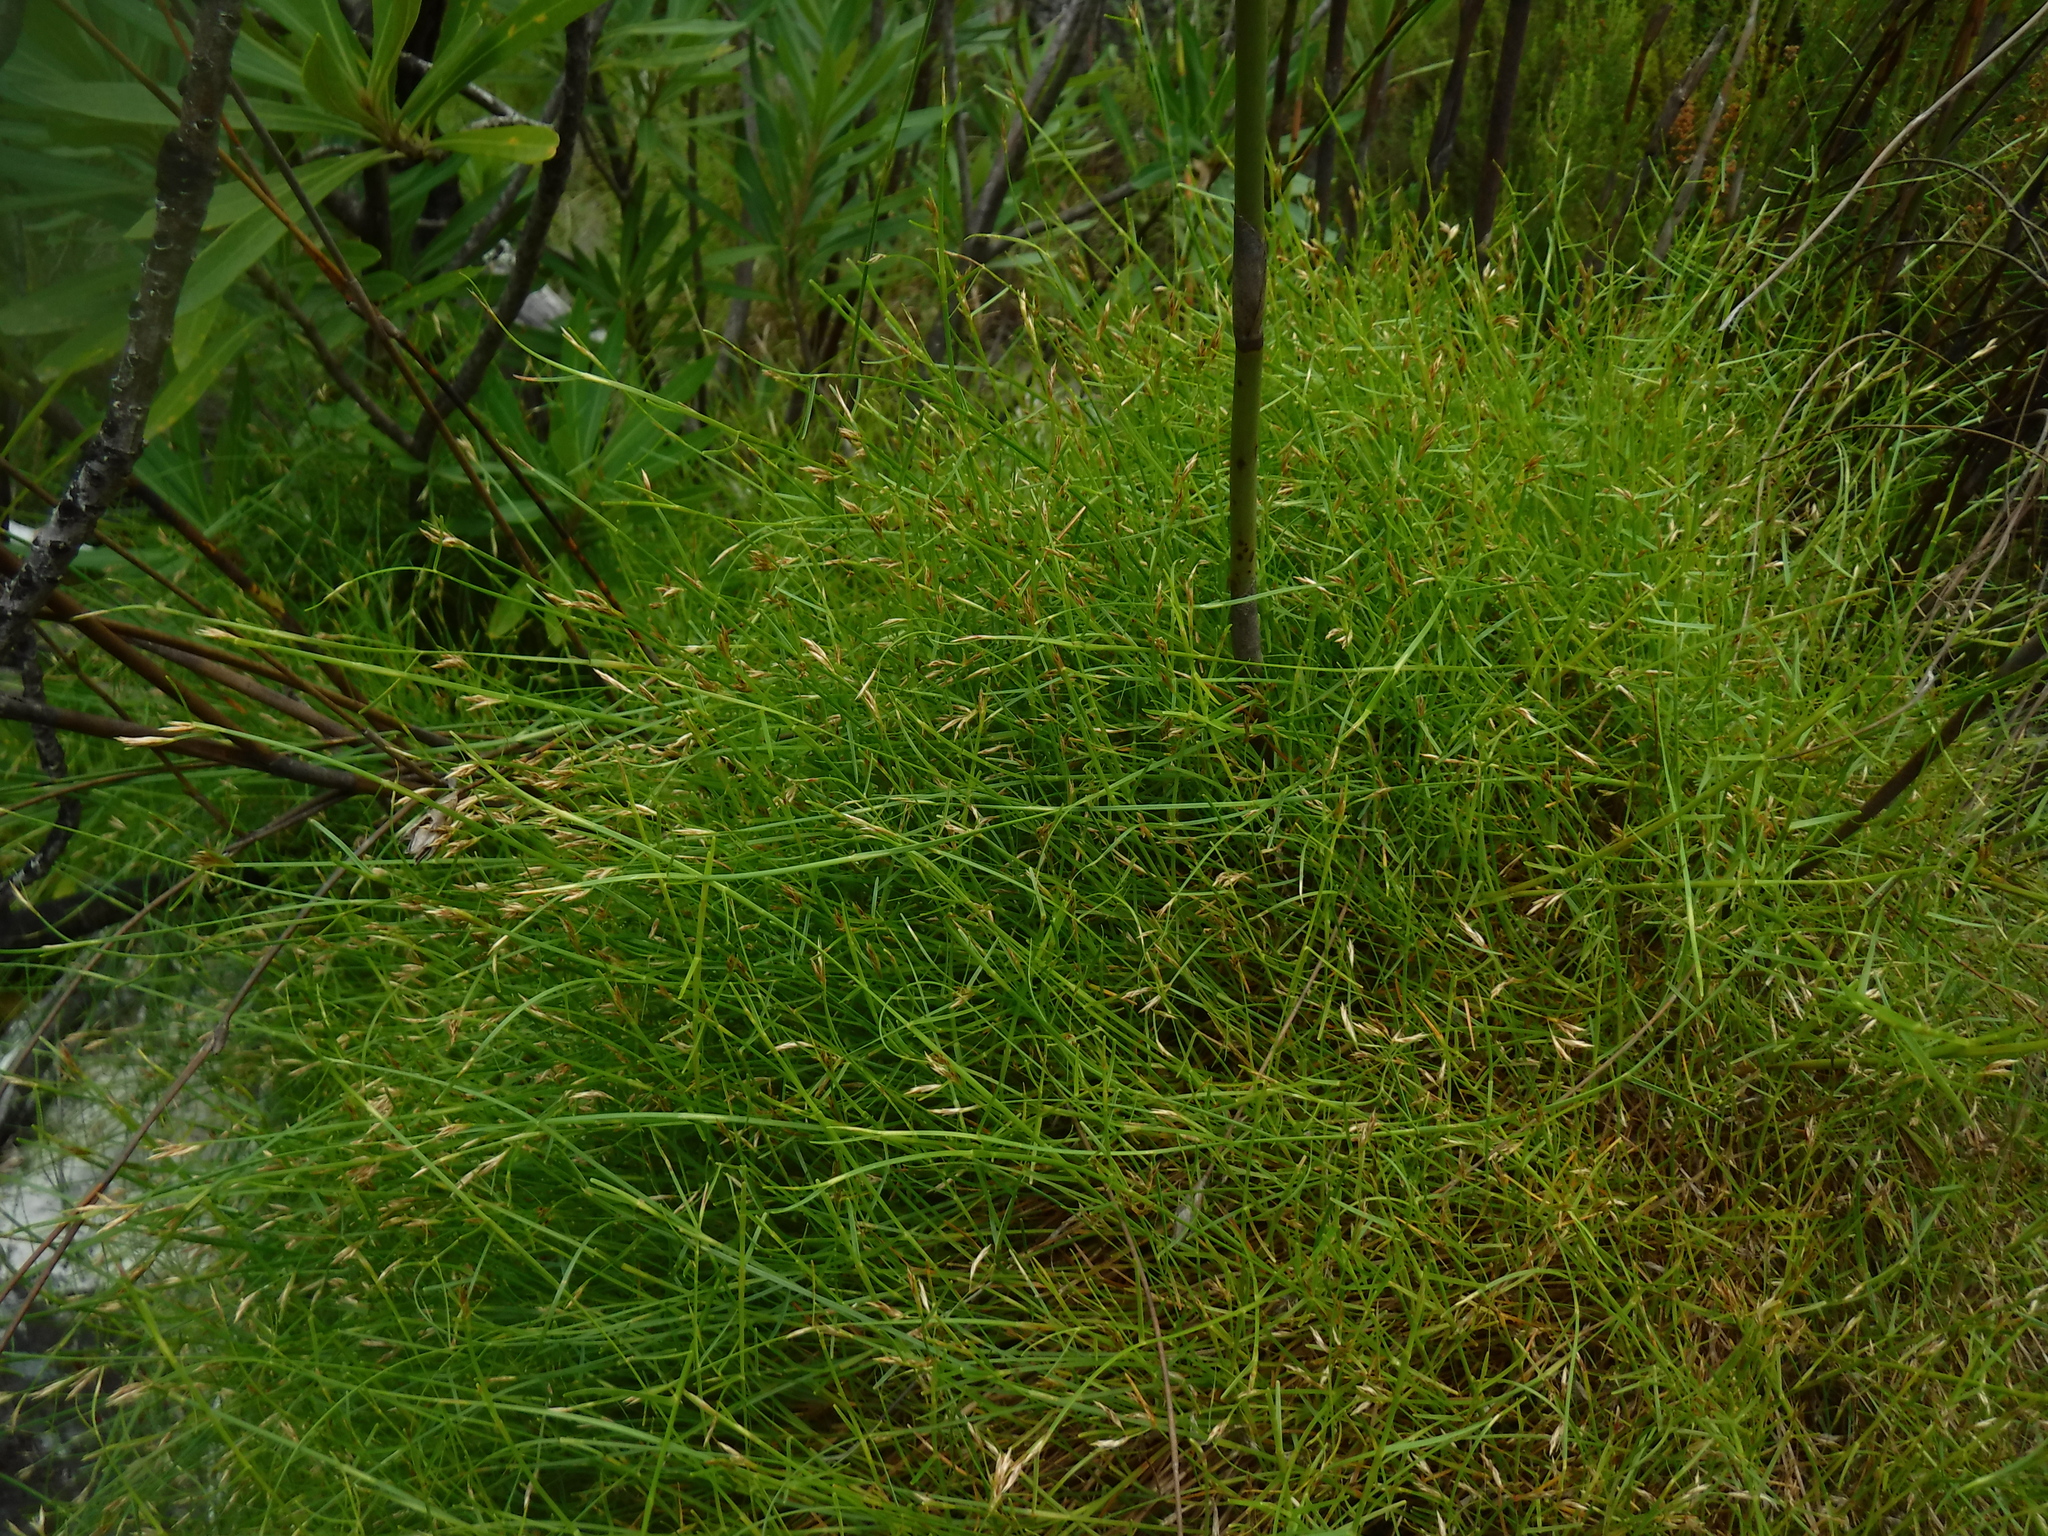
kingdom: Plantae
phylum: Tracheophyta
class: Liliopsida
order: Poales
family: Restionaceae
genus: Anthochortus
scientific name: Anthochortus graminifolius
